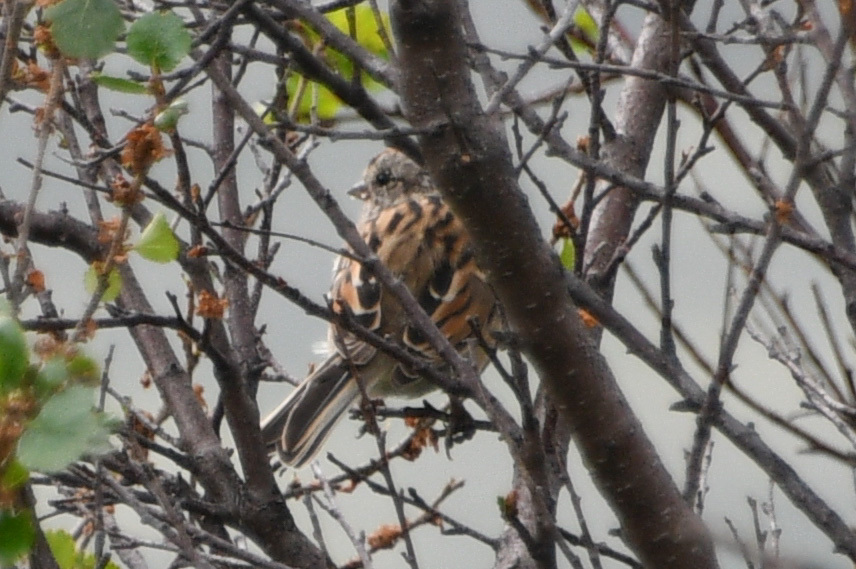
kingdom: Animalia
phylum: Chordata
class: Aves
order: Passeriformes
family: Passerellidae
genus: Spizelloides
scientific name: Spizelloides arborea
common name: American tree sparrow
